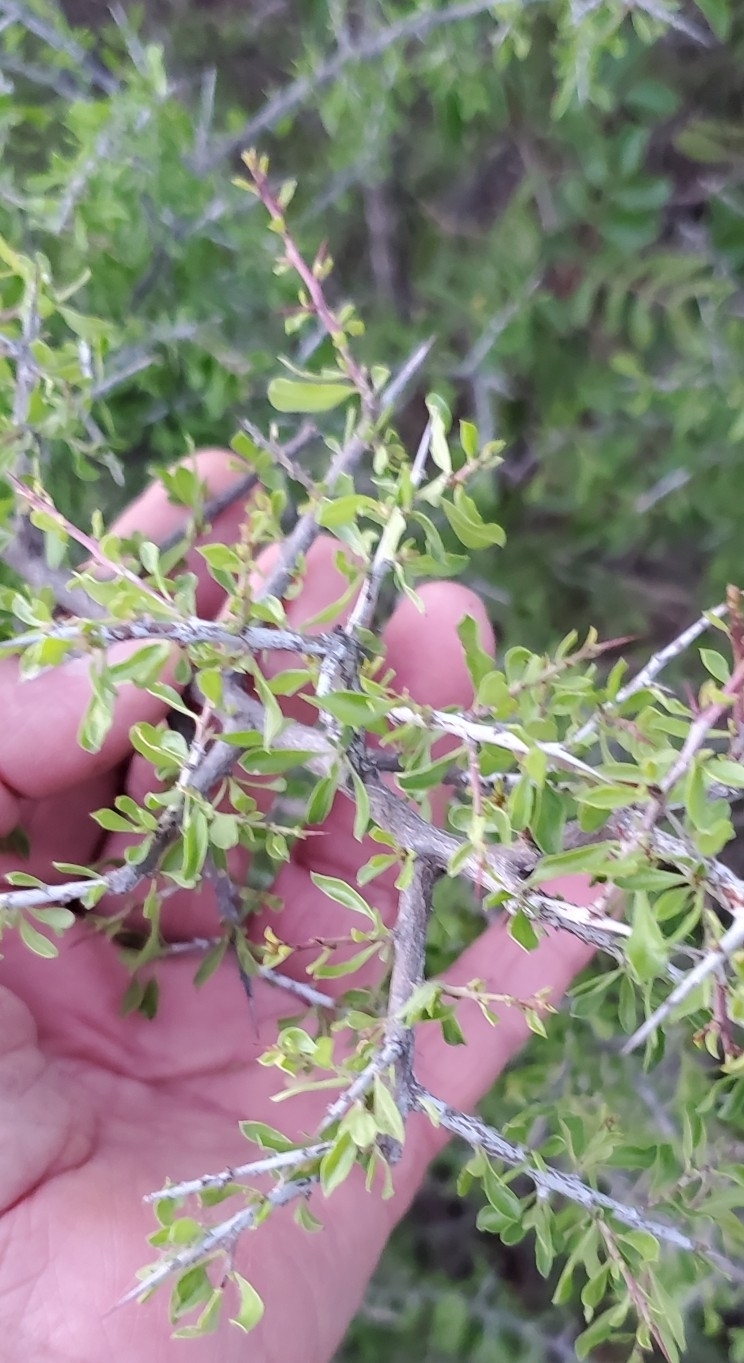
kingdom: Plantae
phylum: Tracheophyta
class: Magnoliopsida
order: Rosales
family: Rhamnaceae
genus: Condalia
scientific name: Condalia viridis
